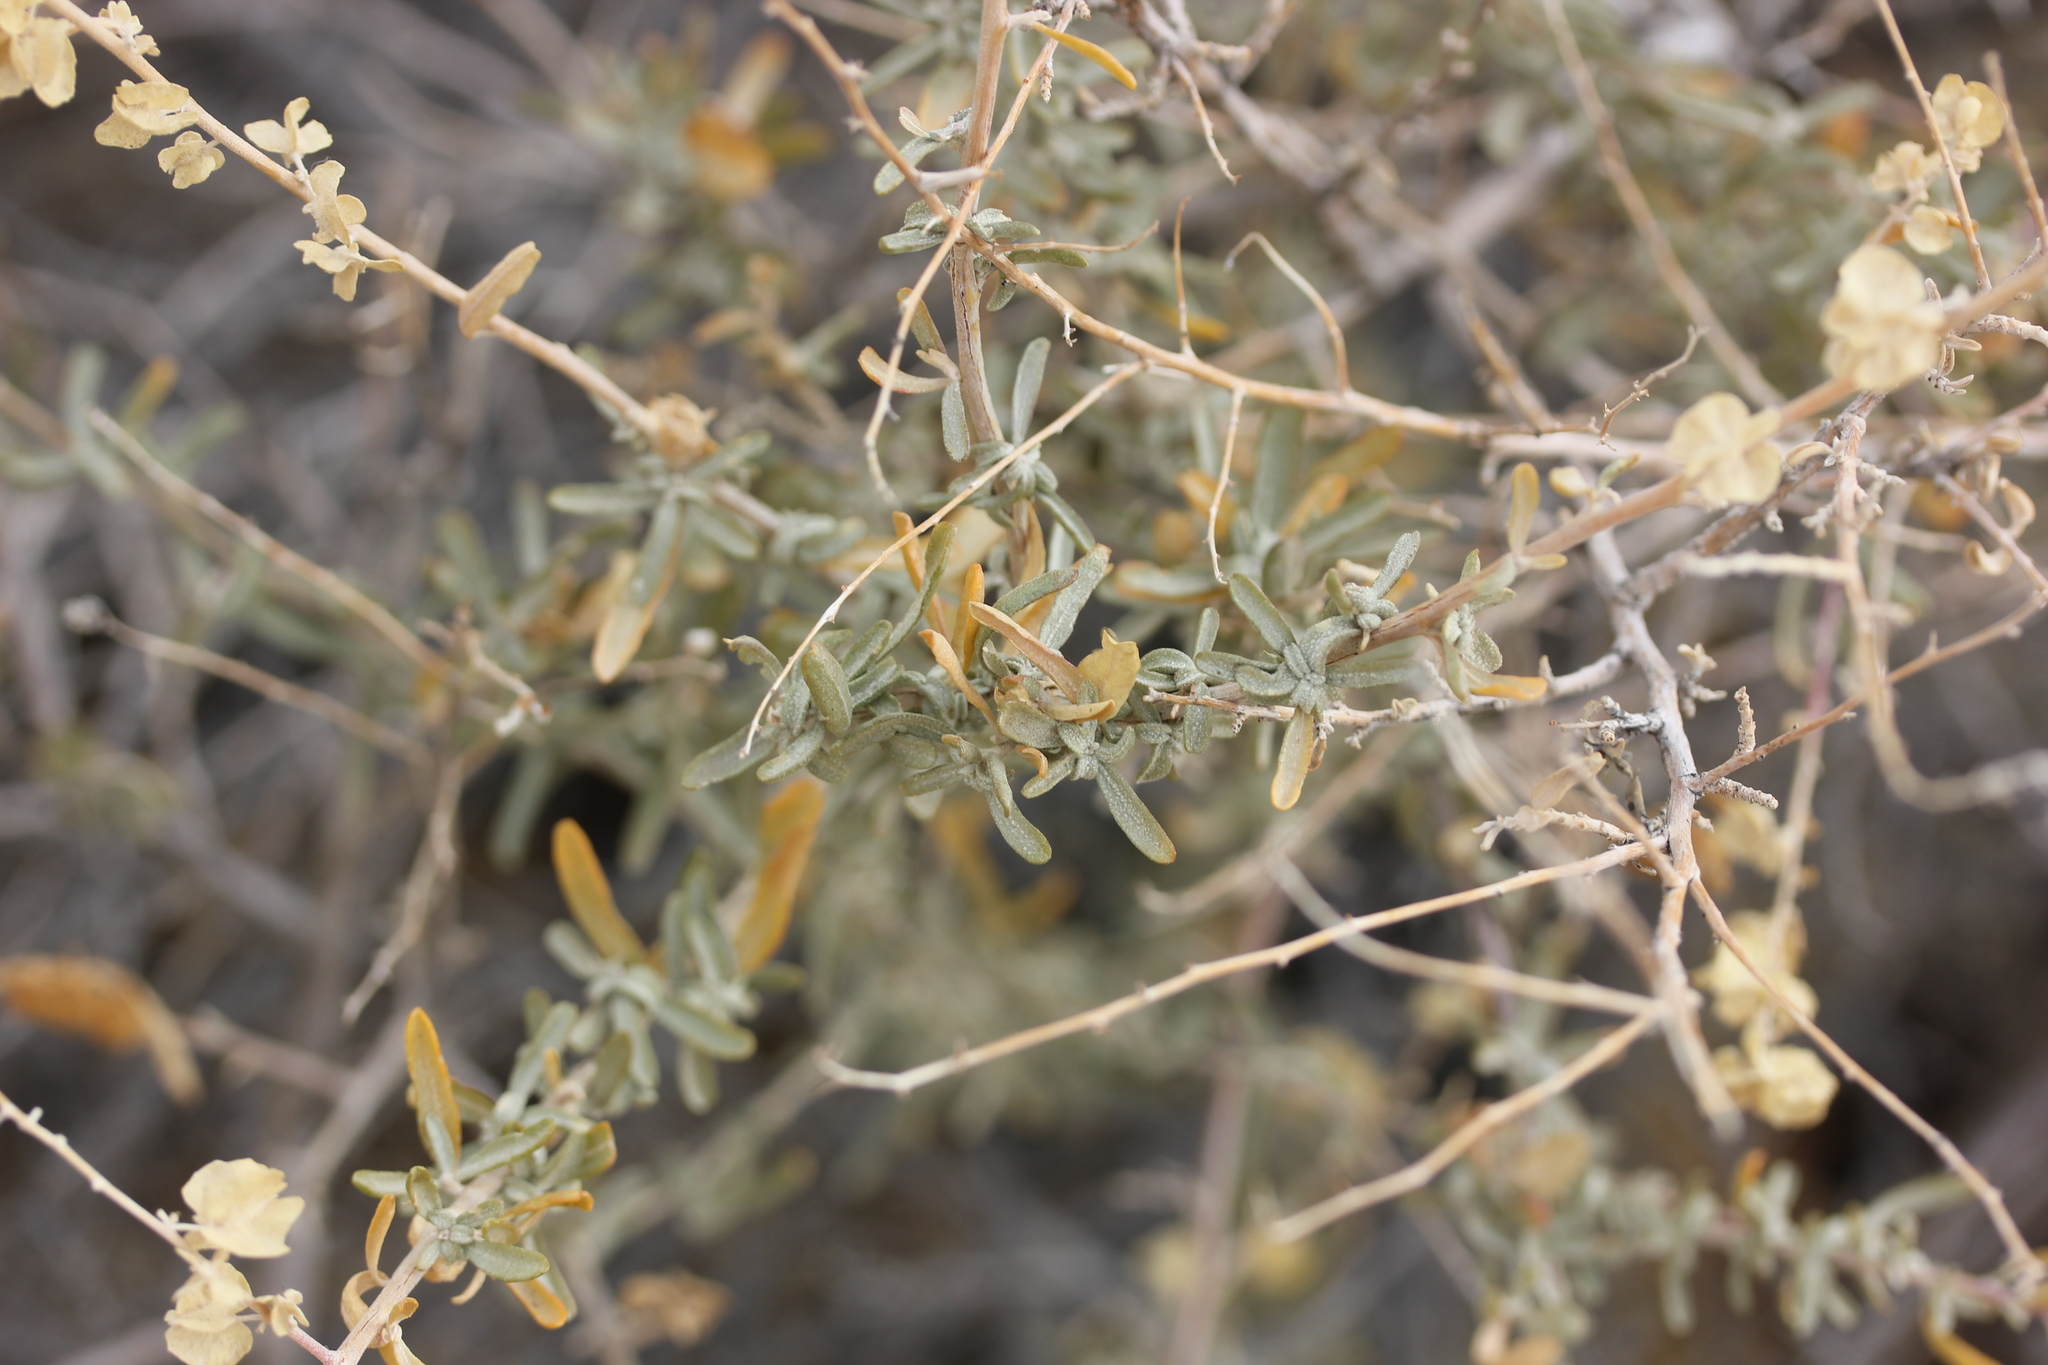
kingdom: Plantae
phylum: Tracheophyta
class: Magnoliopsida
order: Caryophyllales
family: Amaranthaceae
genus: Atriplex
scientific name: Atriplex canescens
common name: Four-wing saltbush
